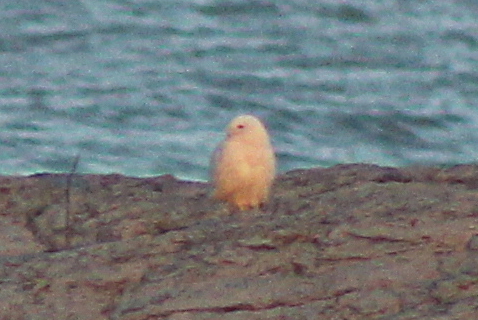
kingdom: Animalia
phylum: Chordata
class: Aves
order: Strigiformes
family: Strigidae
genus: Bubo
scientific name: Bubo scandiacus
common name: Snowy owl
